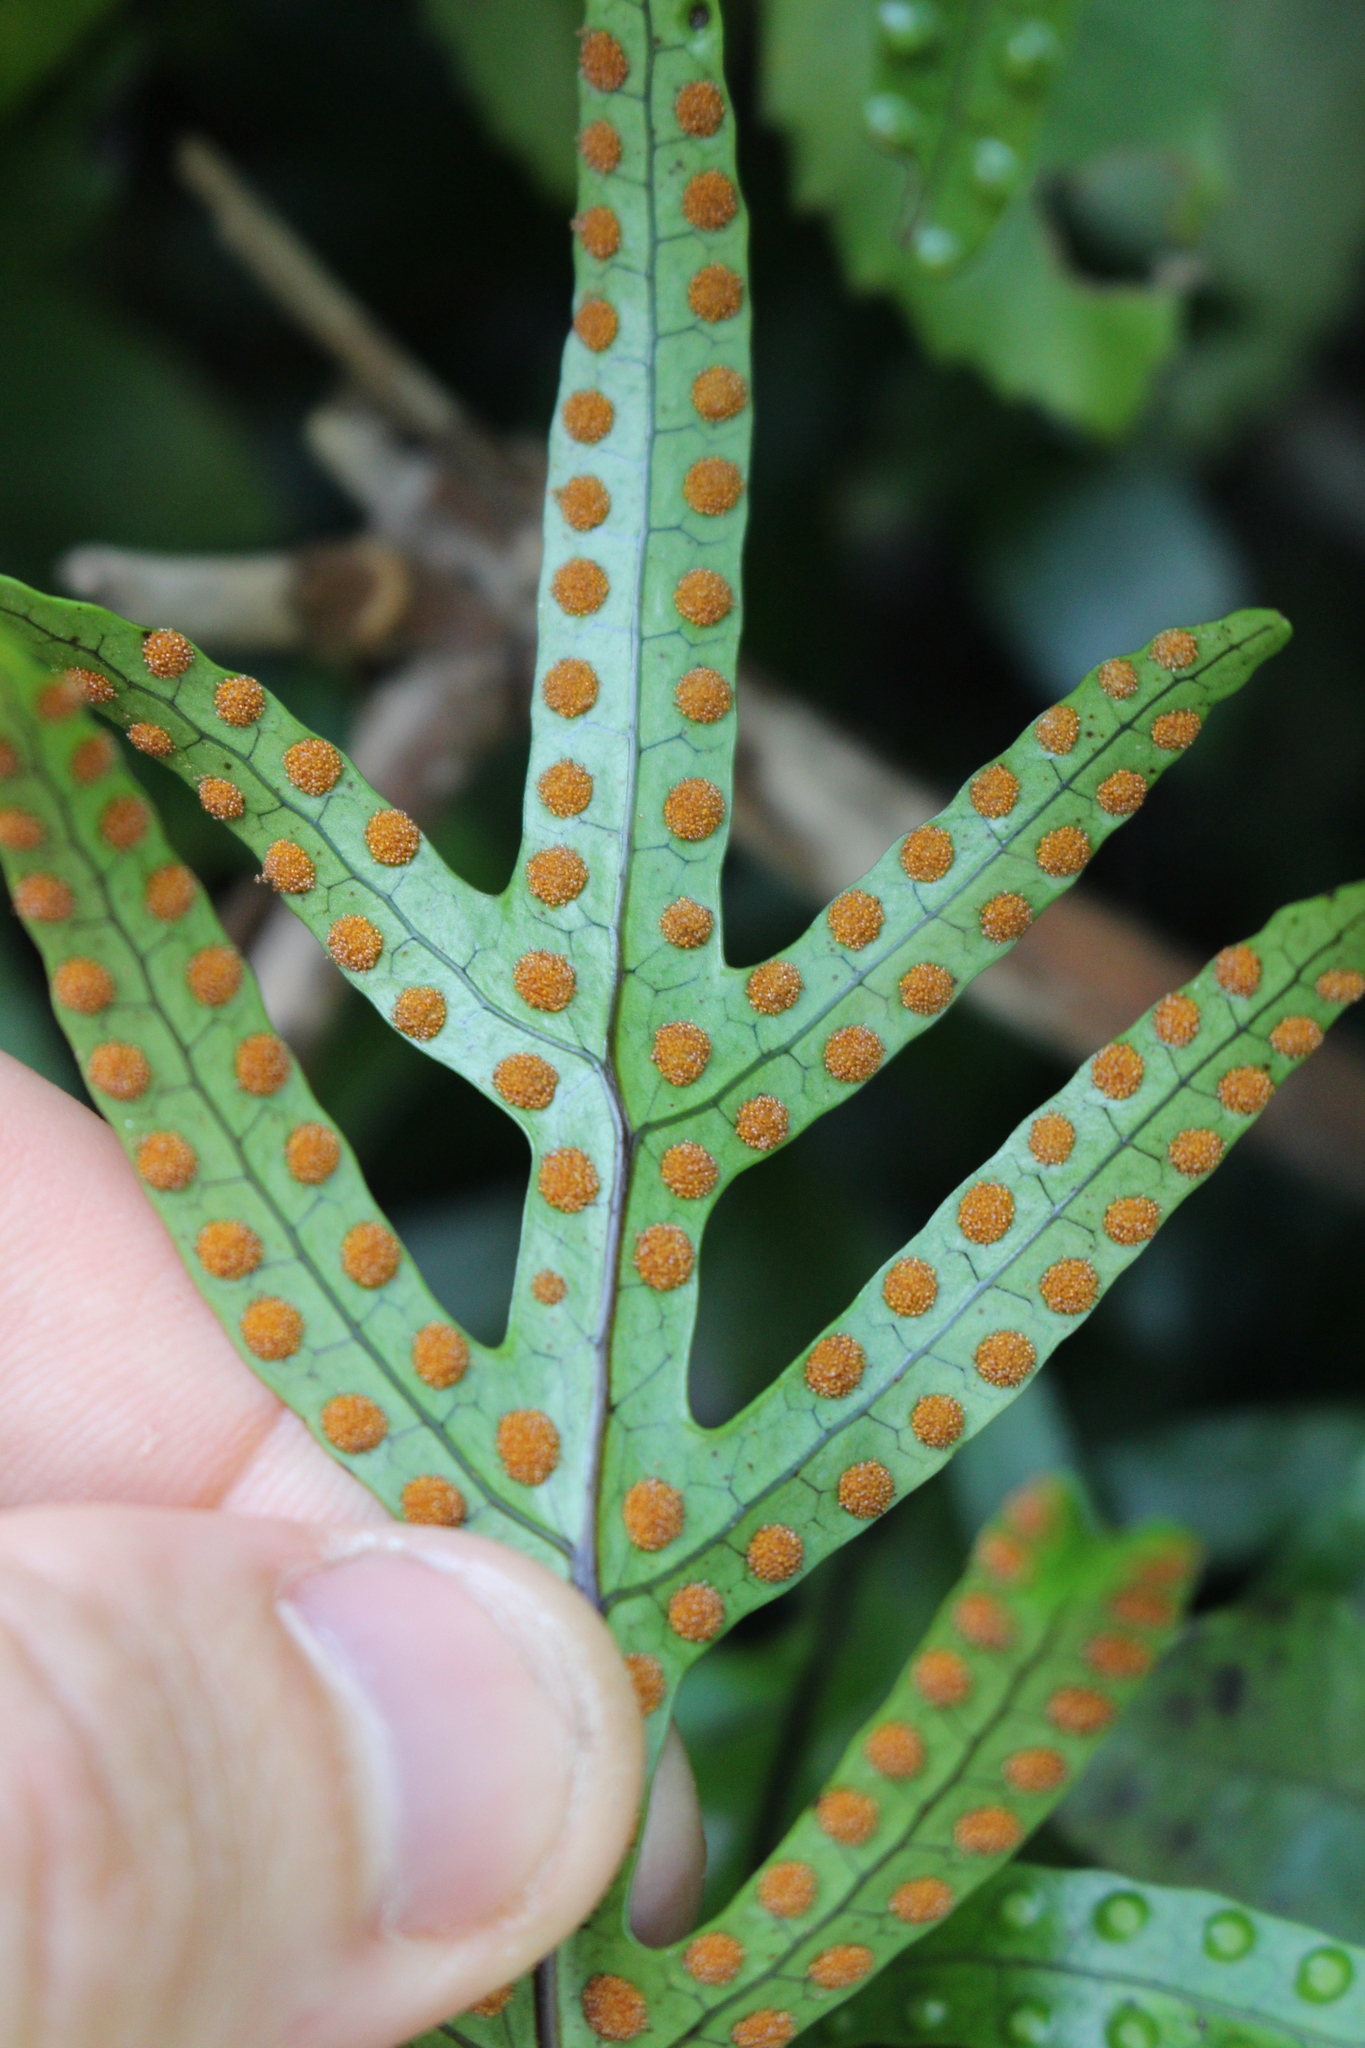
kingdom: Plantae
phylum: Tracheophyta
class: Polypodiopsida
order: Polypodiales
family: Polypodiaceae
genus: Lecanopteris
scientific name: Lecanopteris pustulata
